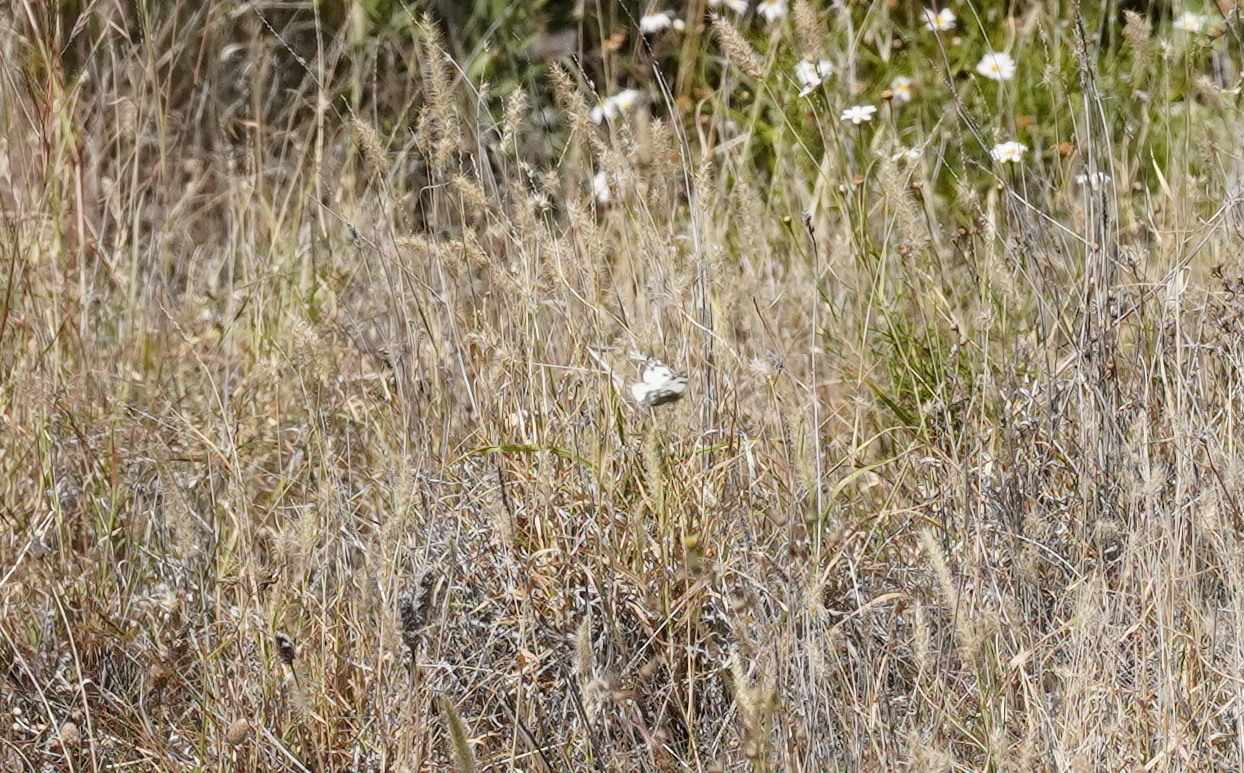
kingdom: Animalia
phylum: Arthropoda
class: Insecta
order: Lepidoptera
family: Pieridae
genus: Pontia
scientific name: Pontia daplidice
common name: Bath white
